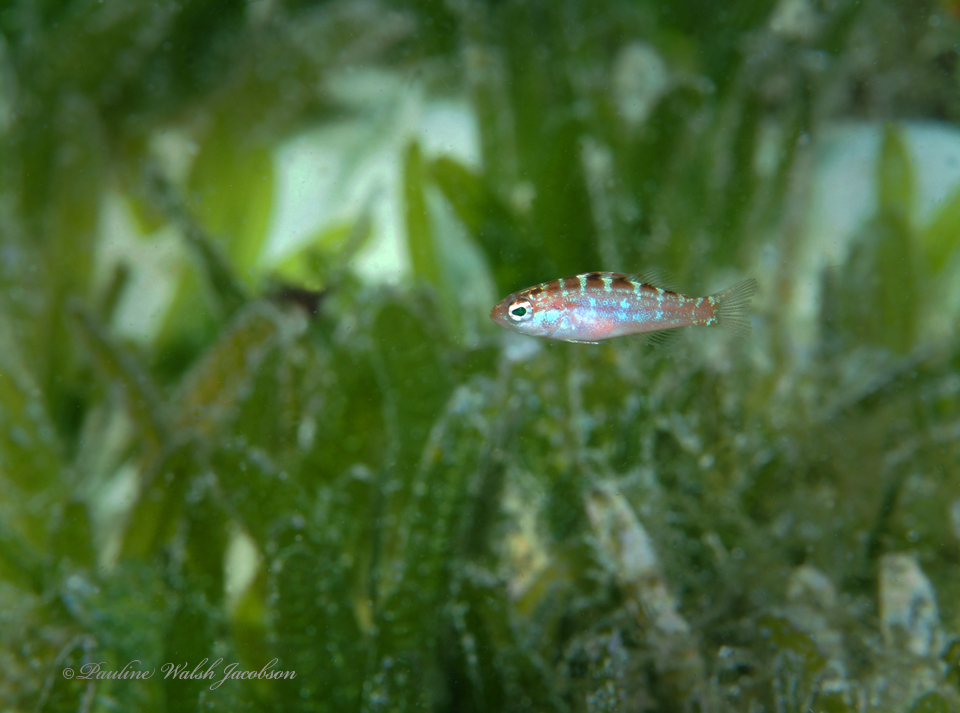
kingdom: Animalia
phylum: Chordata
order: Perciformes
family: Serranidae
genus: Serranus
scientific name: Serranus tortugarum
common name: Chalk bass
